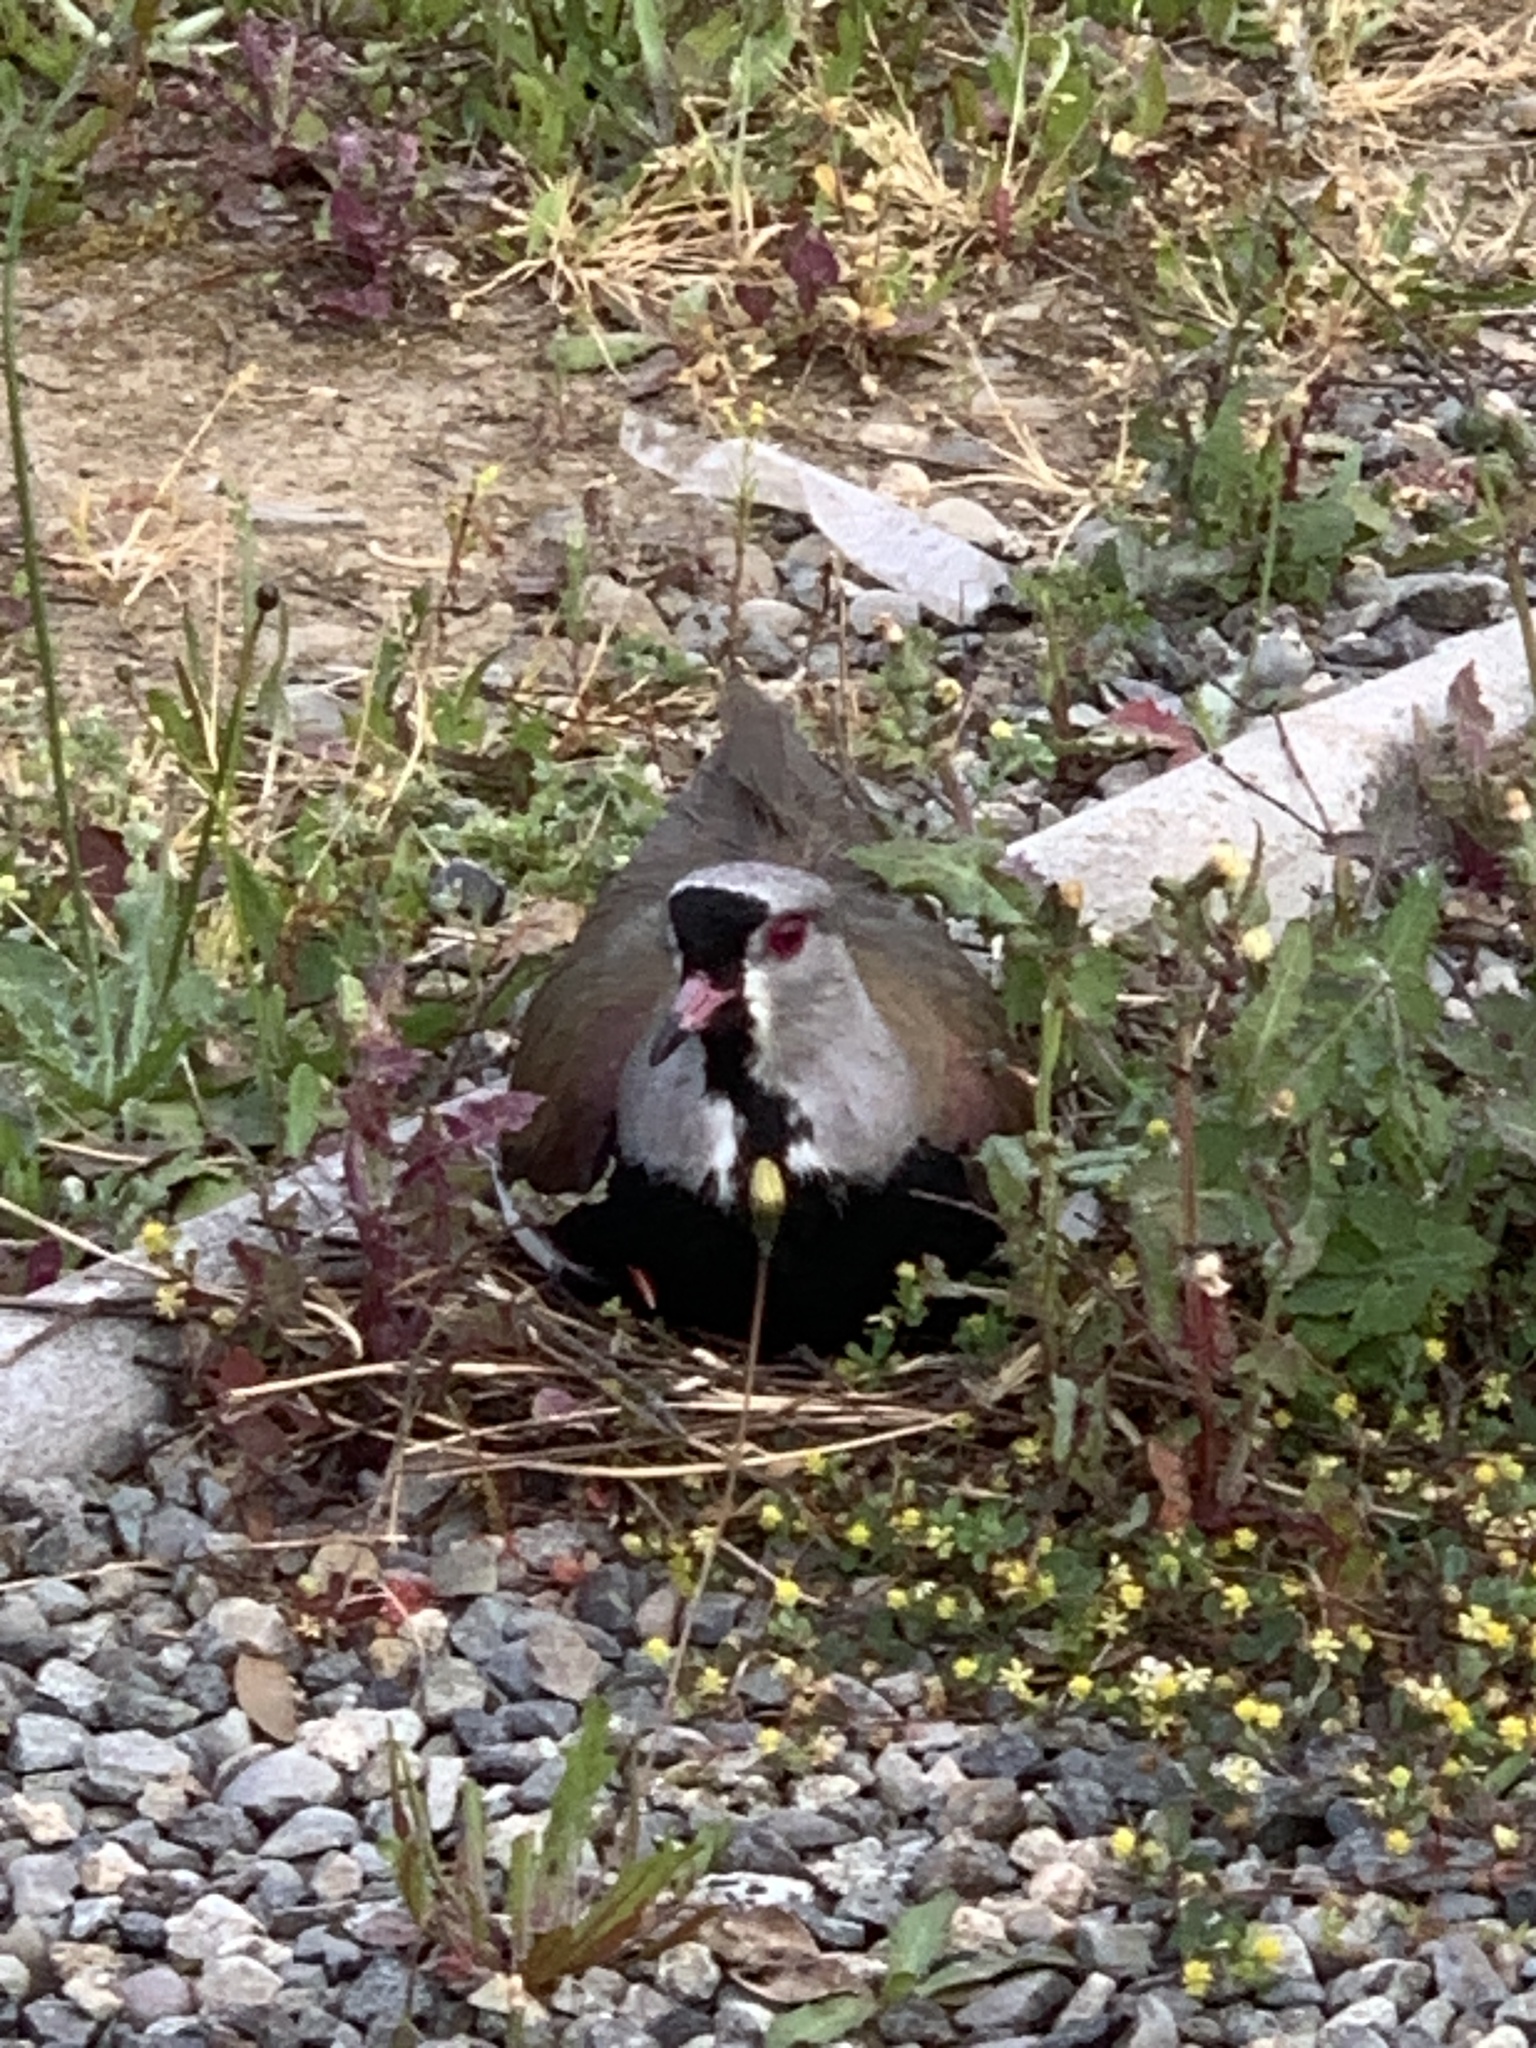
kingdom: Animalia
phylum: Chordata
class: Aves
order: Charadriiformes
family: Charadriidae
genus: Vanellus
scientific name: Vanellus chilensis
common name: Southern lapwing
